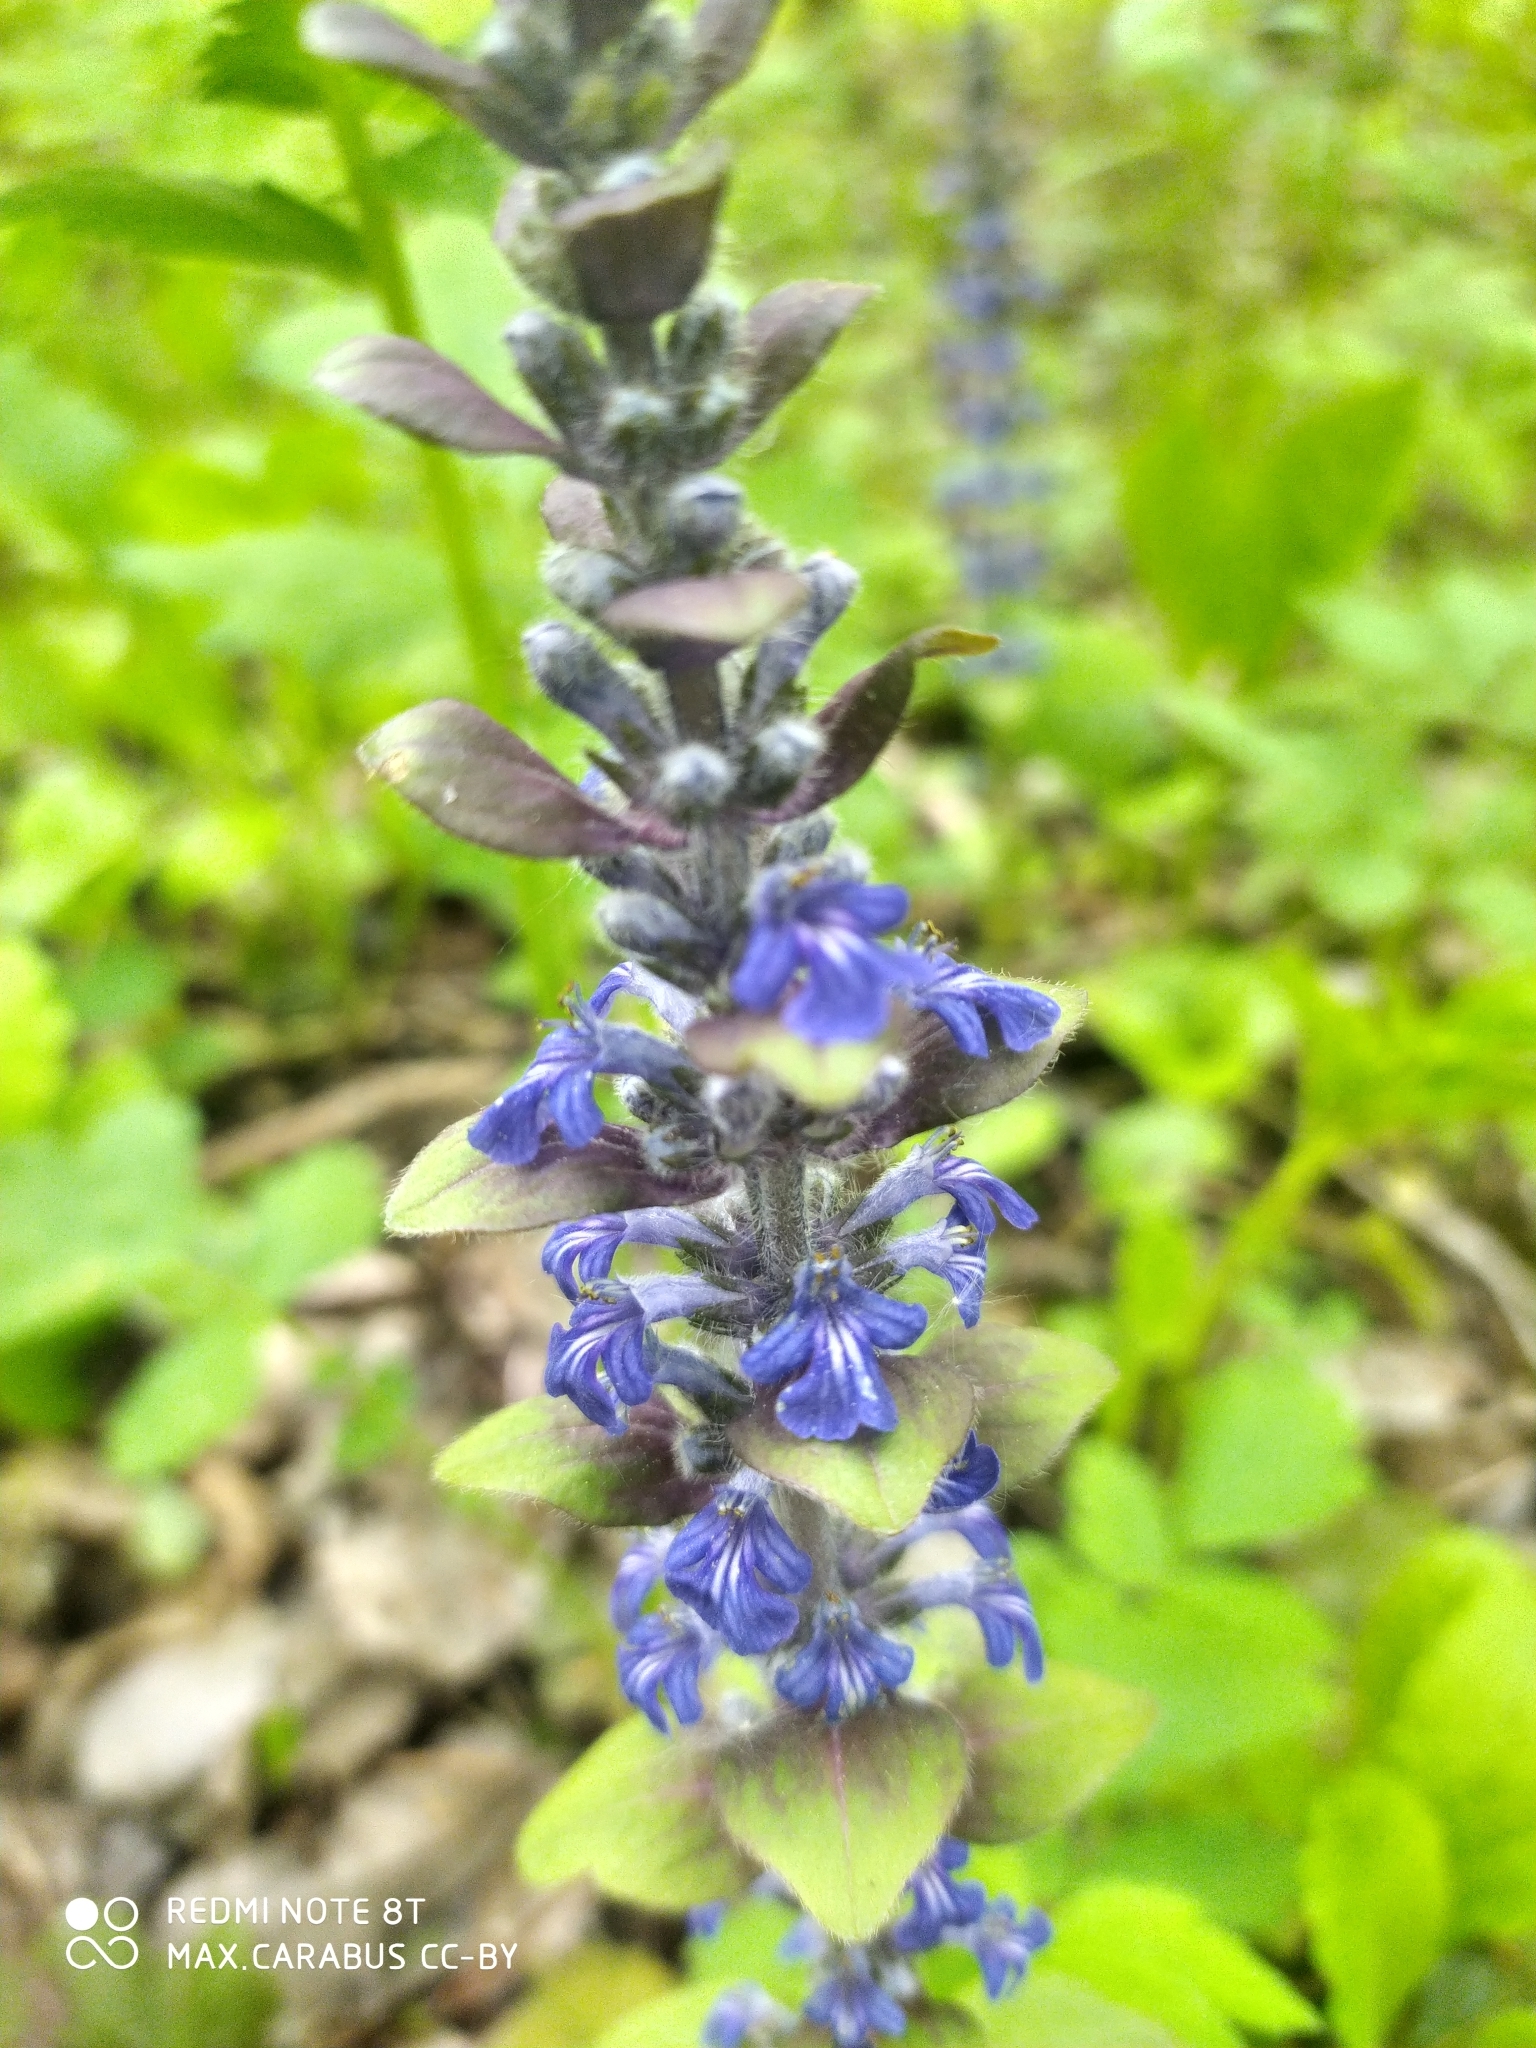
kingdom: Plantae
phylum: Tracheophyta
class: Magnoliopsida
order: Lamiales
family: Lamiaceae
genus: Ajuga
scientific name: Ajuga reptans
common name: Bugle
